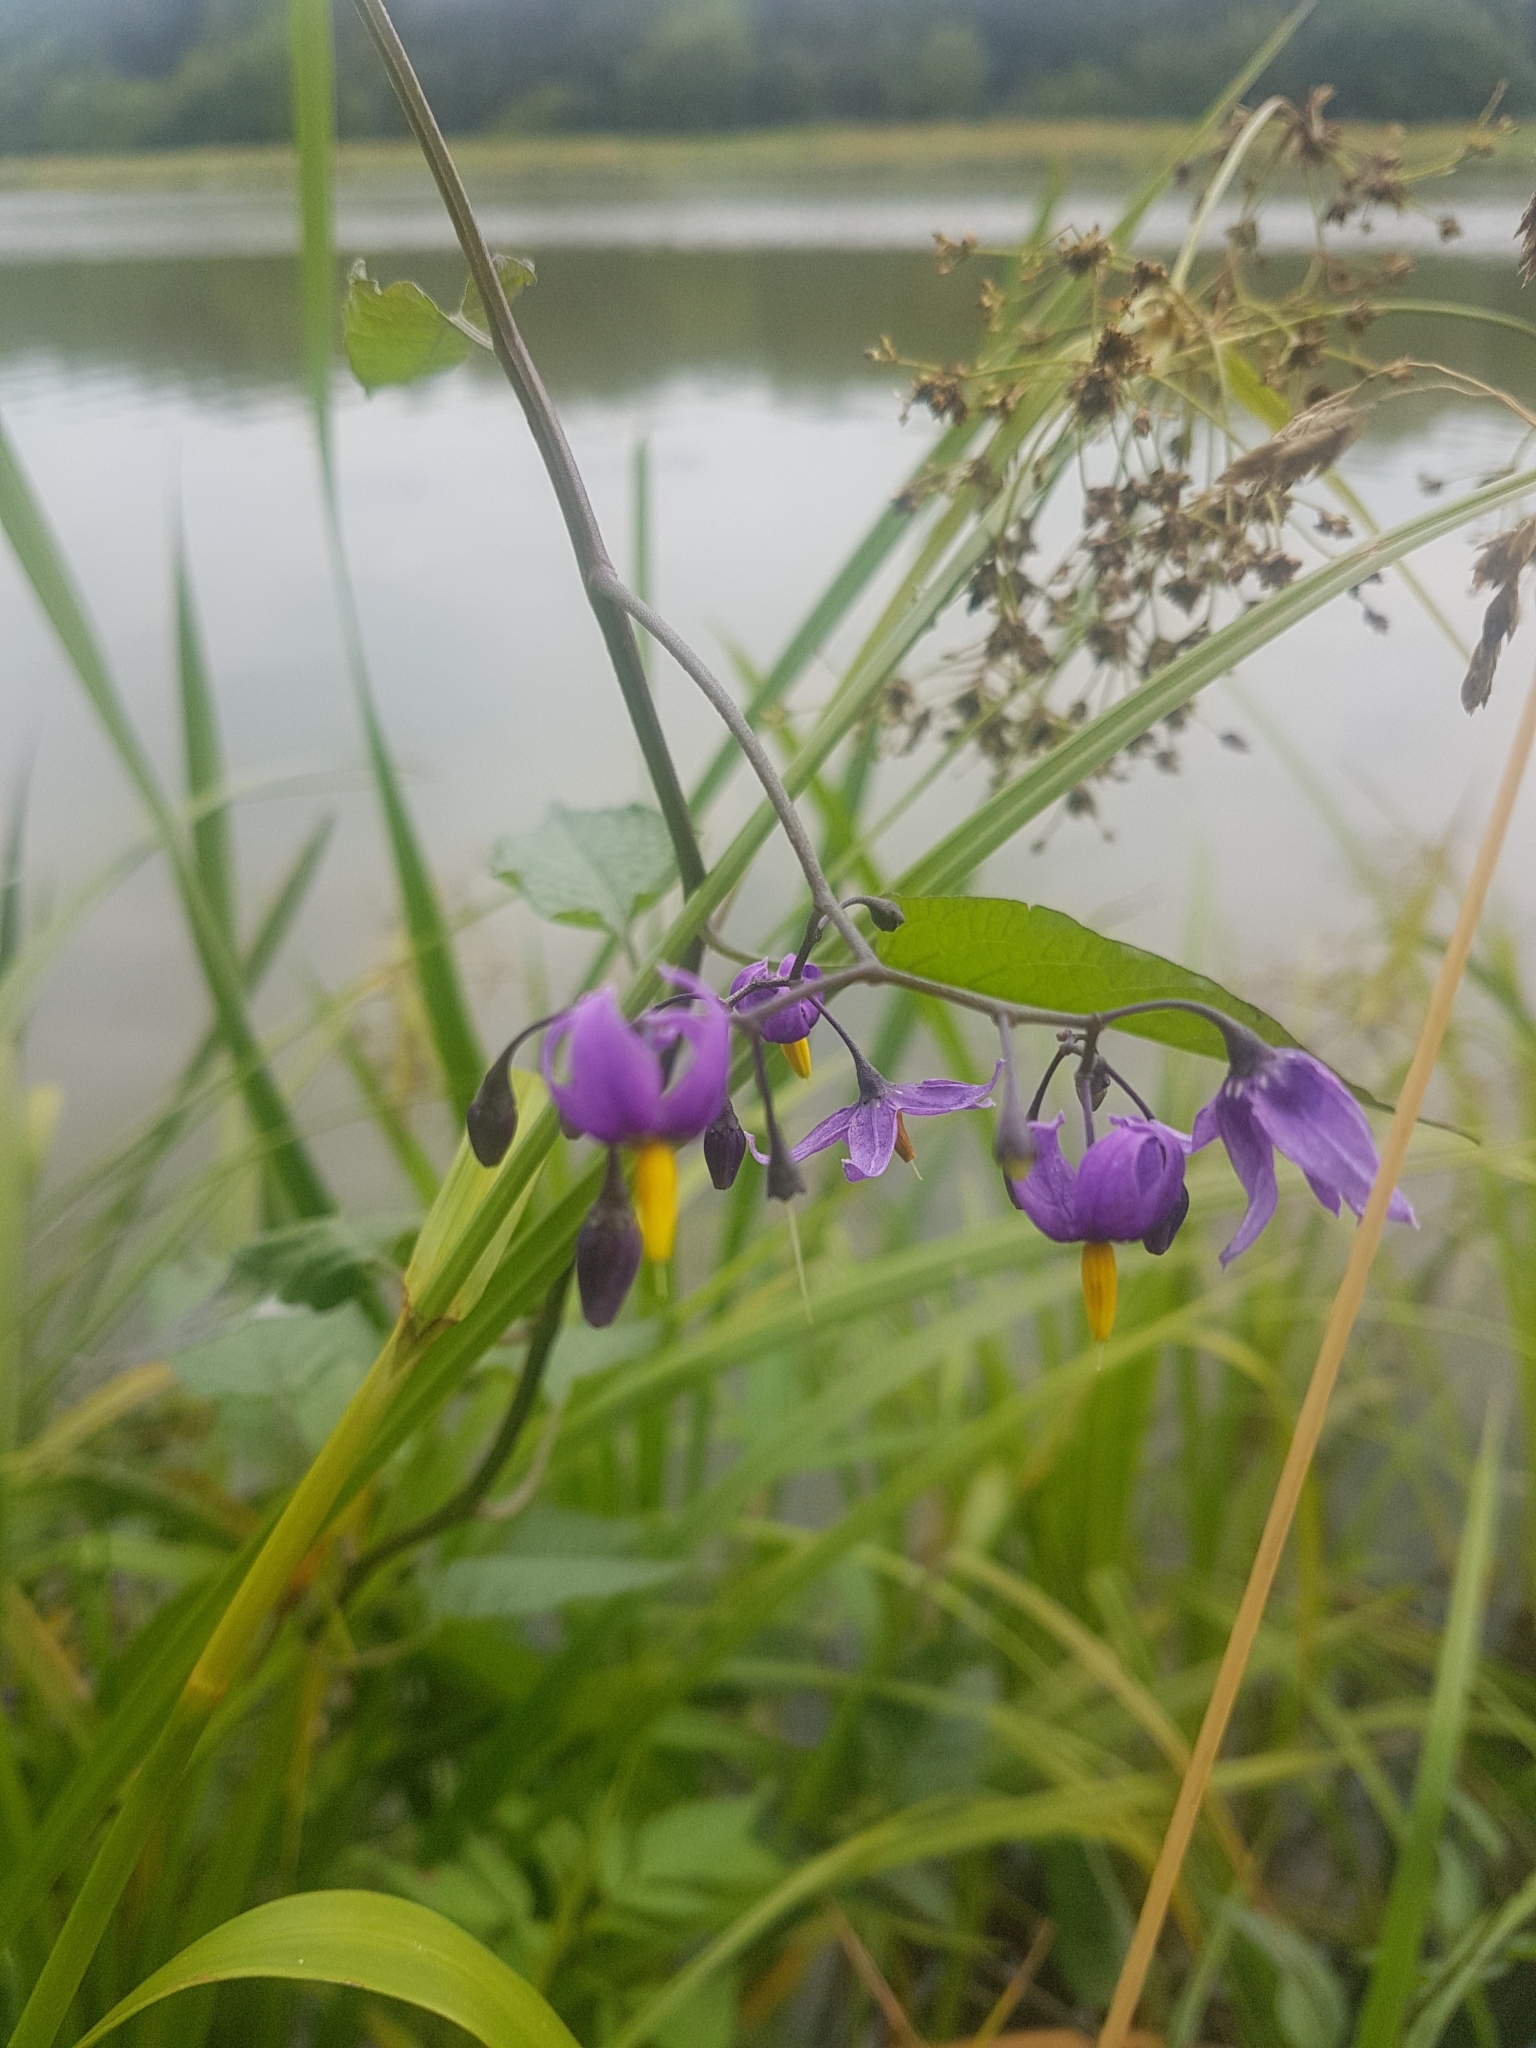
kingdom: Plantae
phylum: Tracheophyta
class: Magnoliopsida
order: Solanales
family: Solanaceae
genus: Solanum
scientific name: Solanum dulcamara
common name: Climbing nightshade
